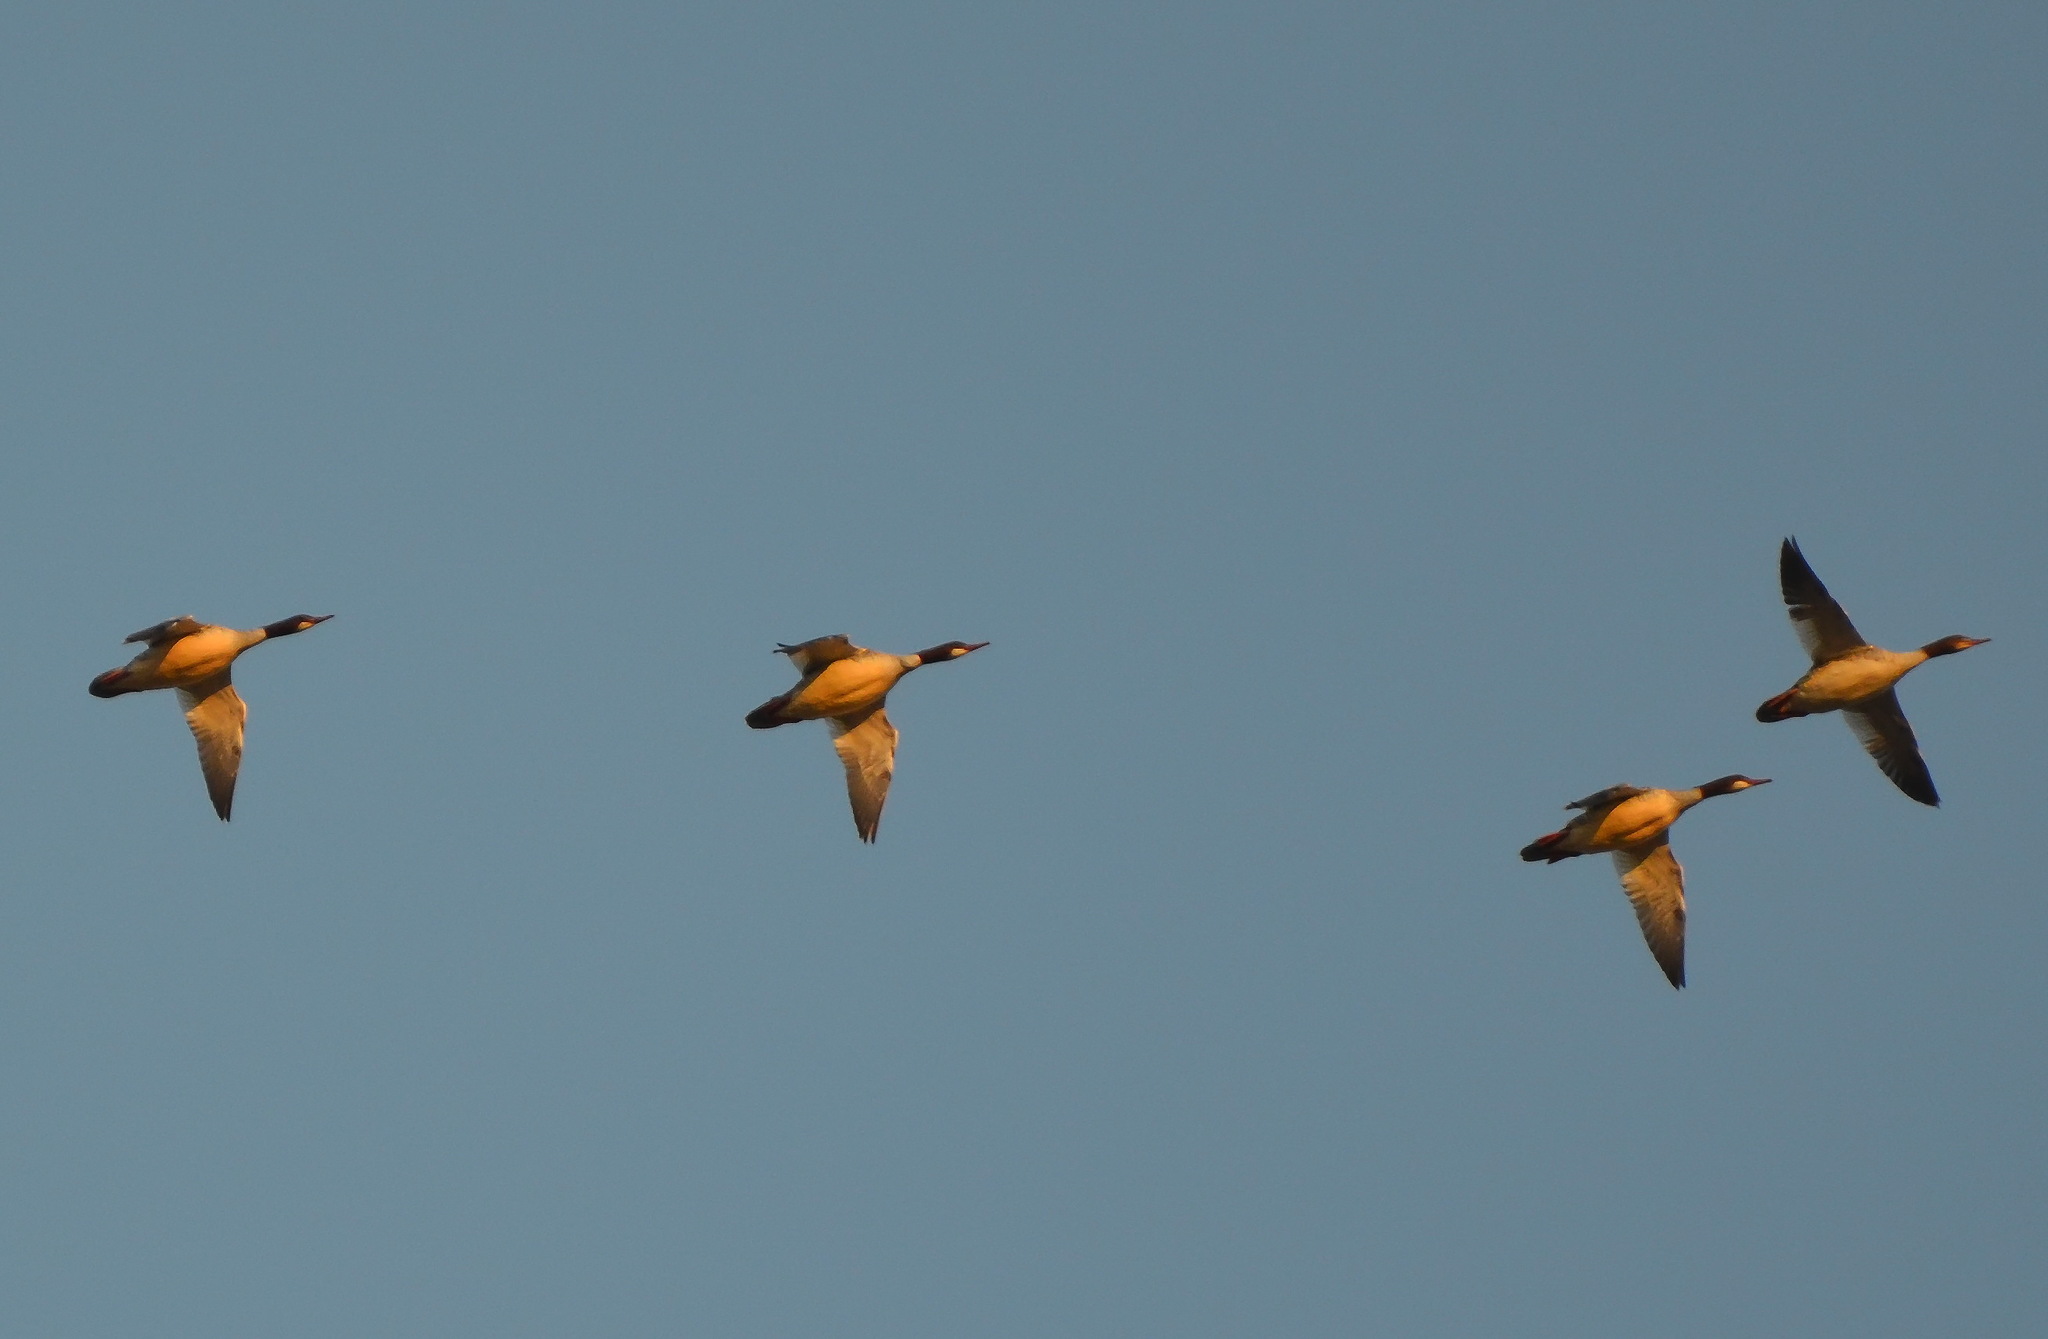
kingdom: Animalia
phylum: Chordata
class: Aves
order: Anseriformes
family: Anatidae
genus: Mergus
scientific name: Mergus merganser
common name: Common merganser
